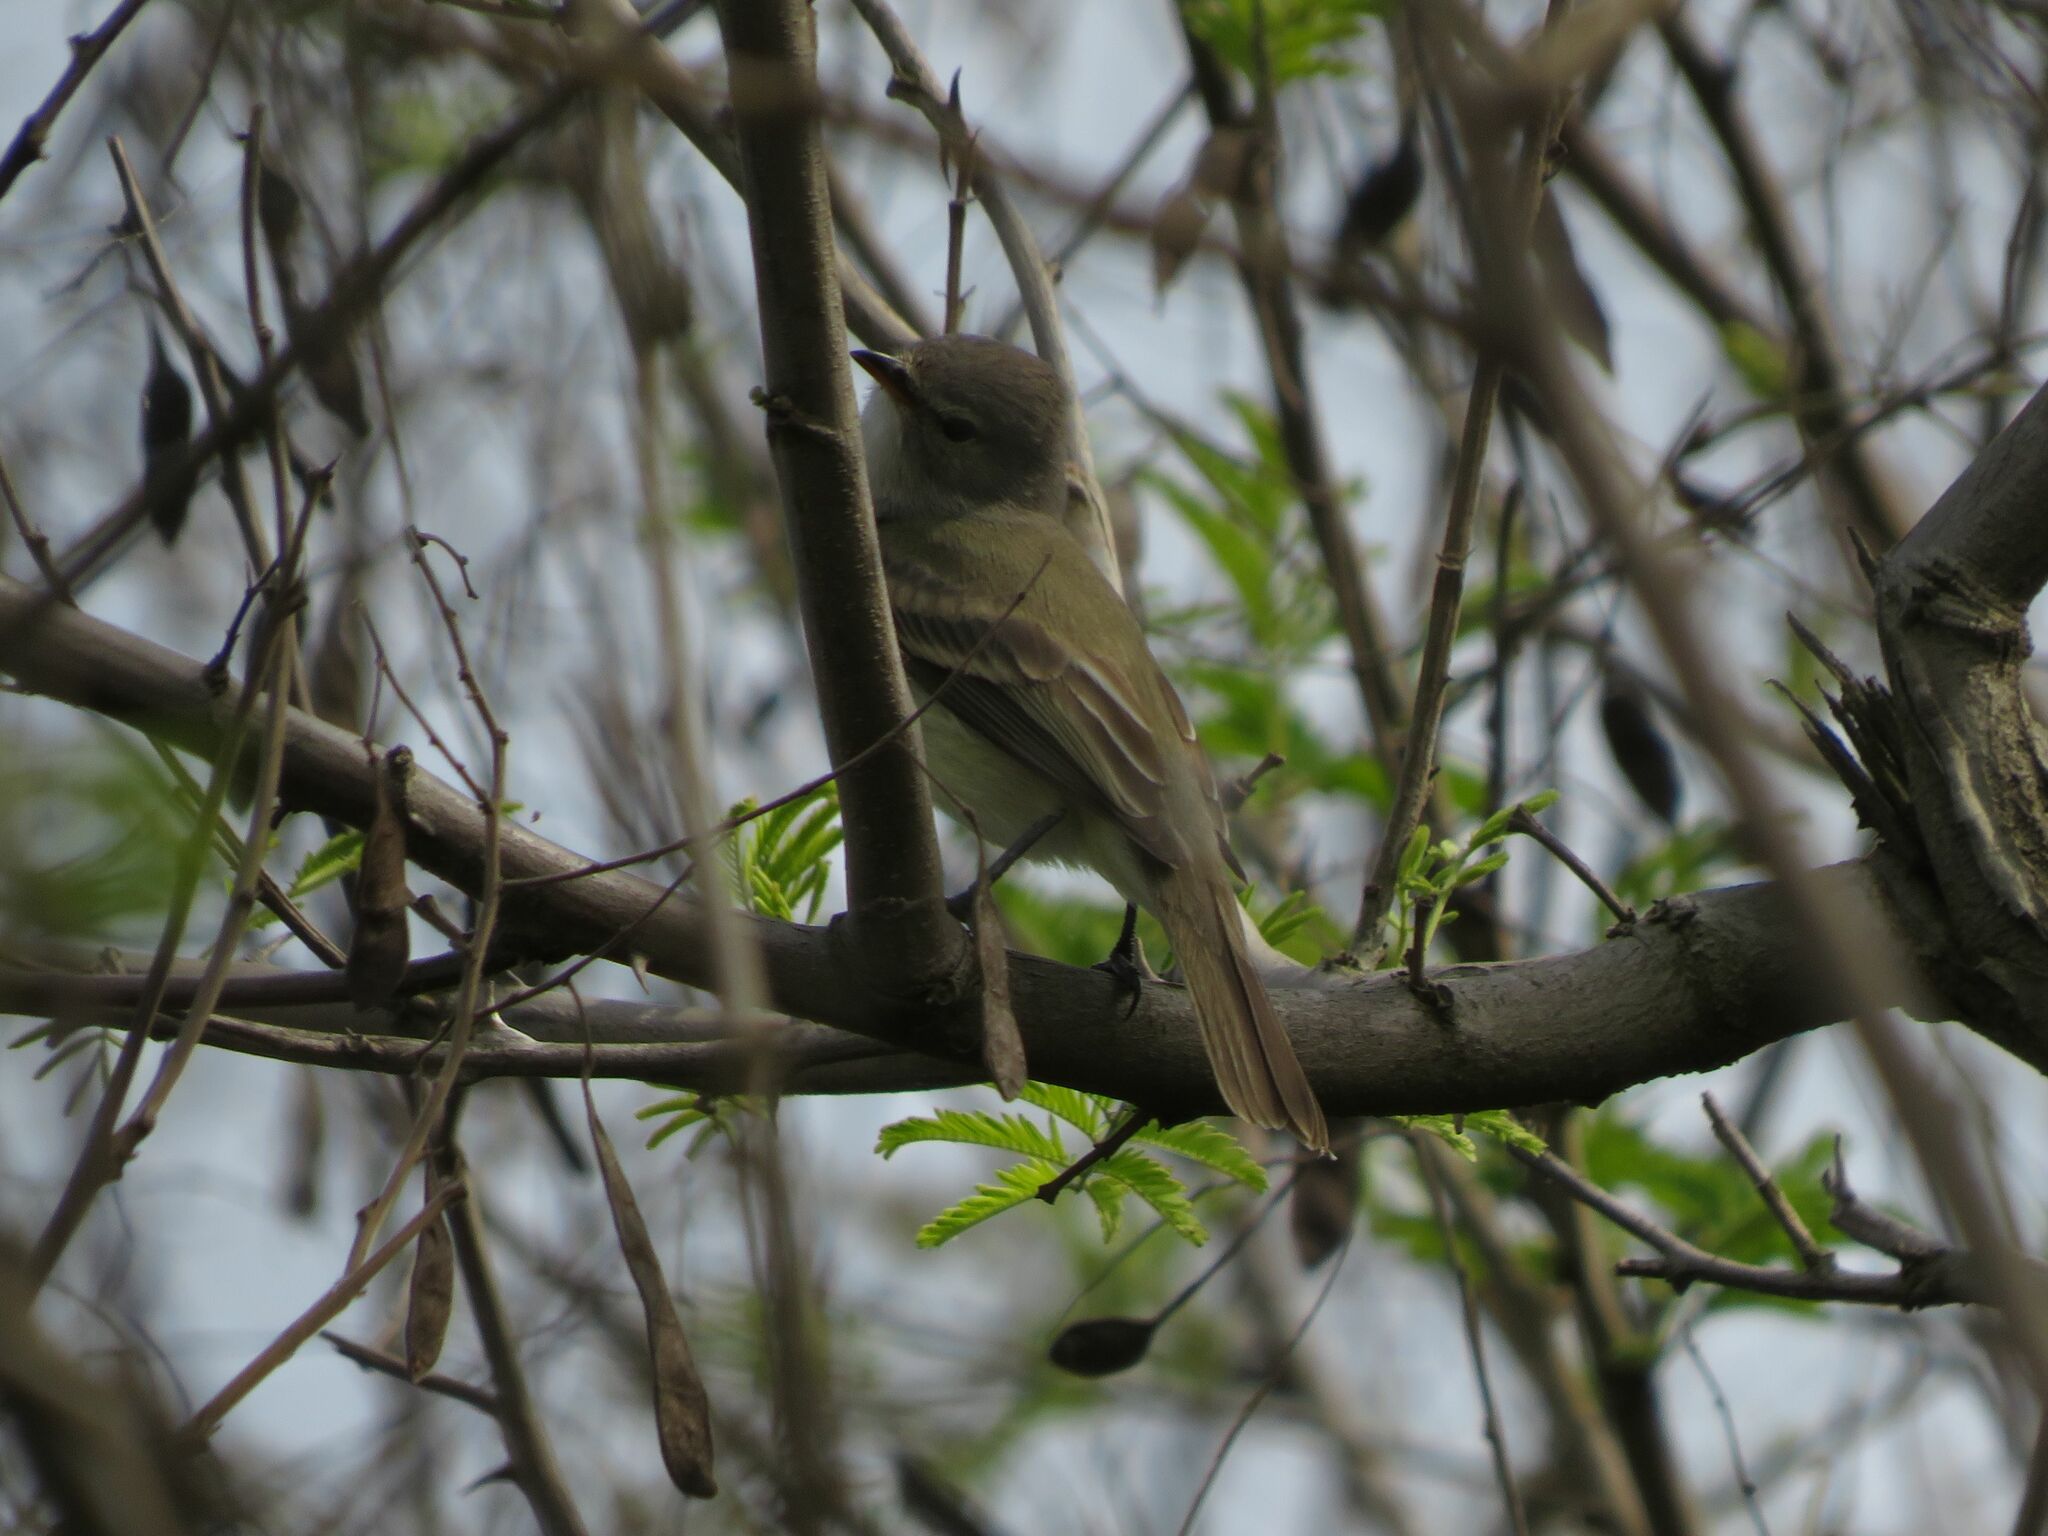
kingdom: Animalia
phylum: Chordata
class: Aves
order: Passeriformes
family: Tyrannidae
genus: Camptostoma
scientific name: Camptostoma obsoletum
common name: Southern beardless-tyrannulet
